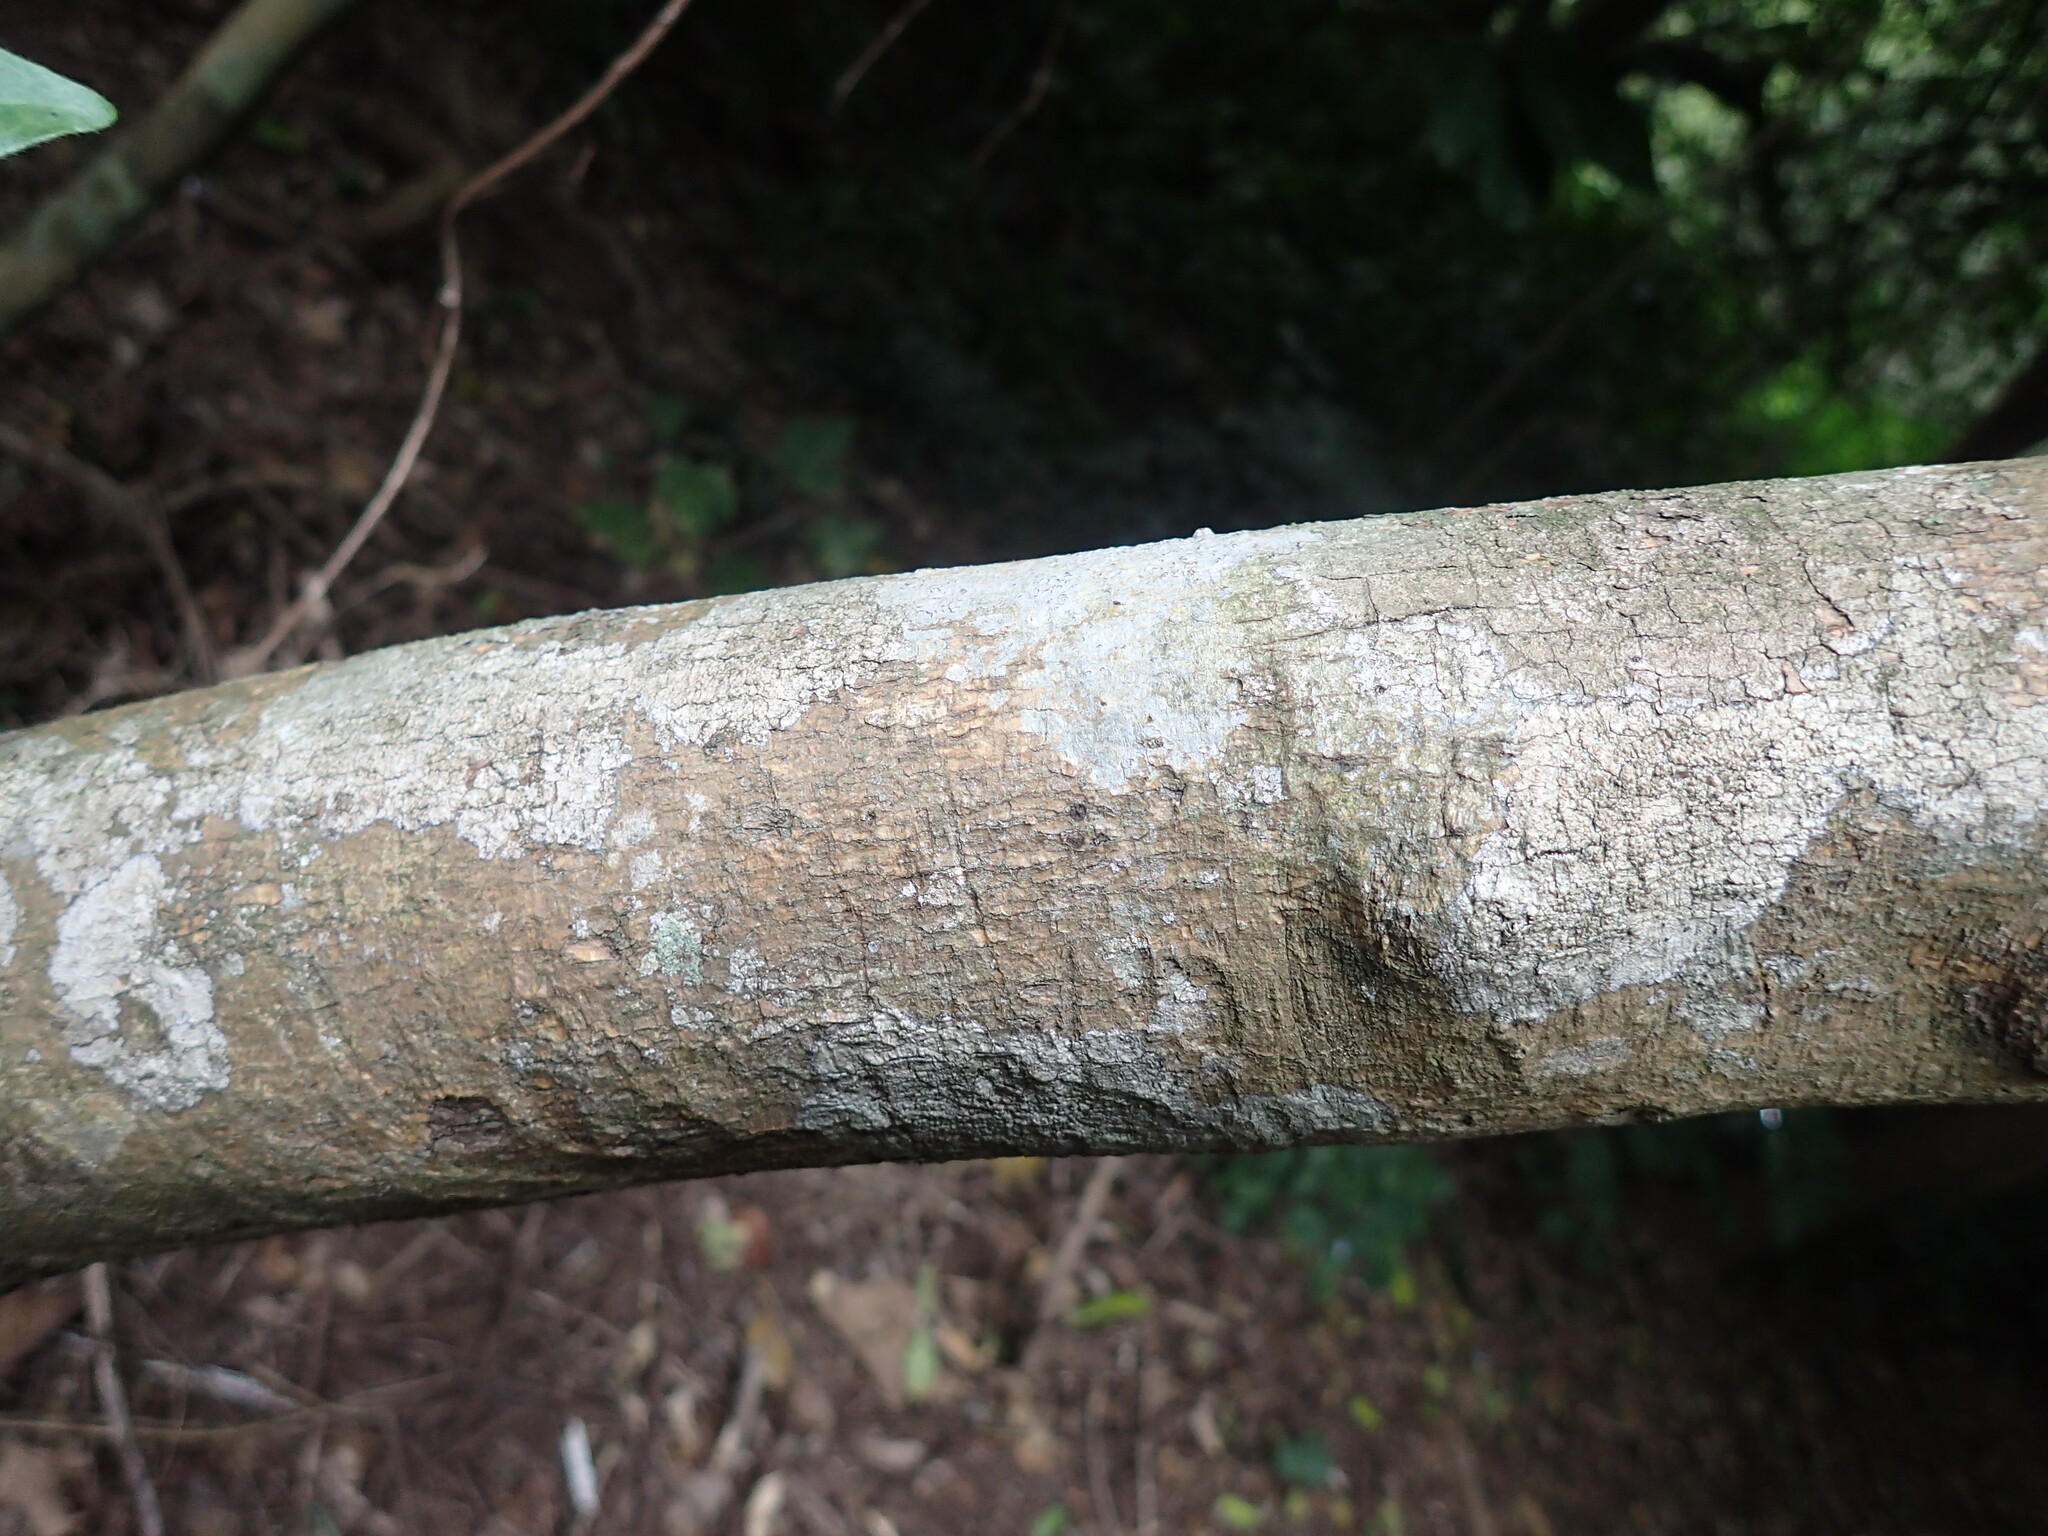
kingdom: Plantae
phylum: Tracheophyta
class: Magnoliopsida
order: Gentianales
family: Rubiaceae
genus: Rothmannia
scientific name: Rothmannia globosa
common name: September bells
